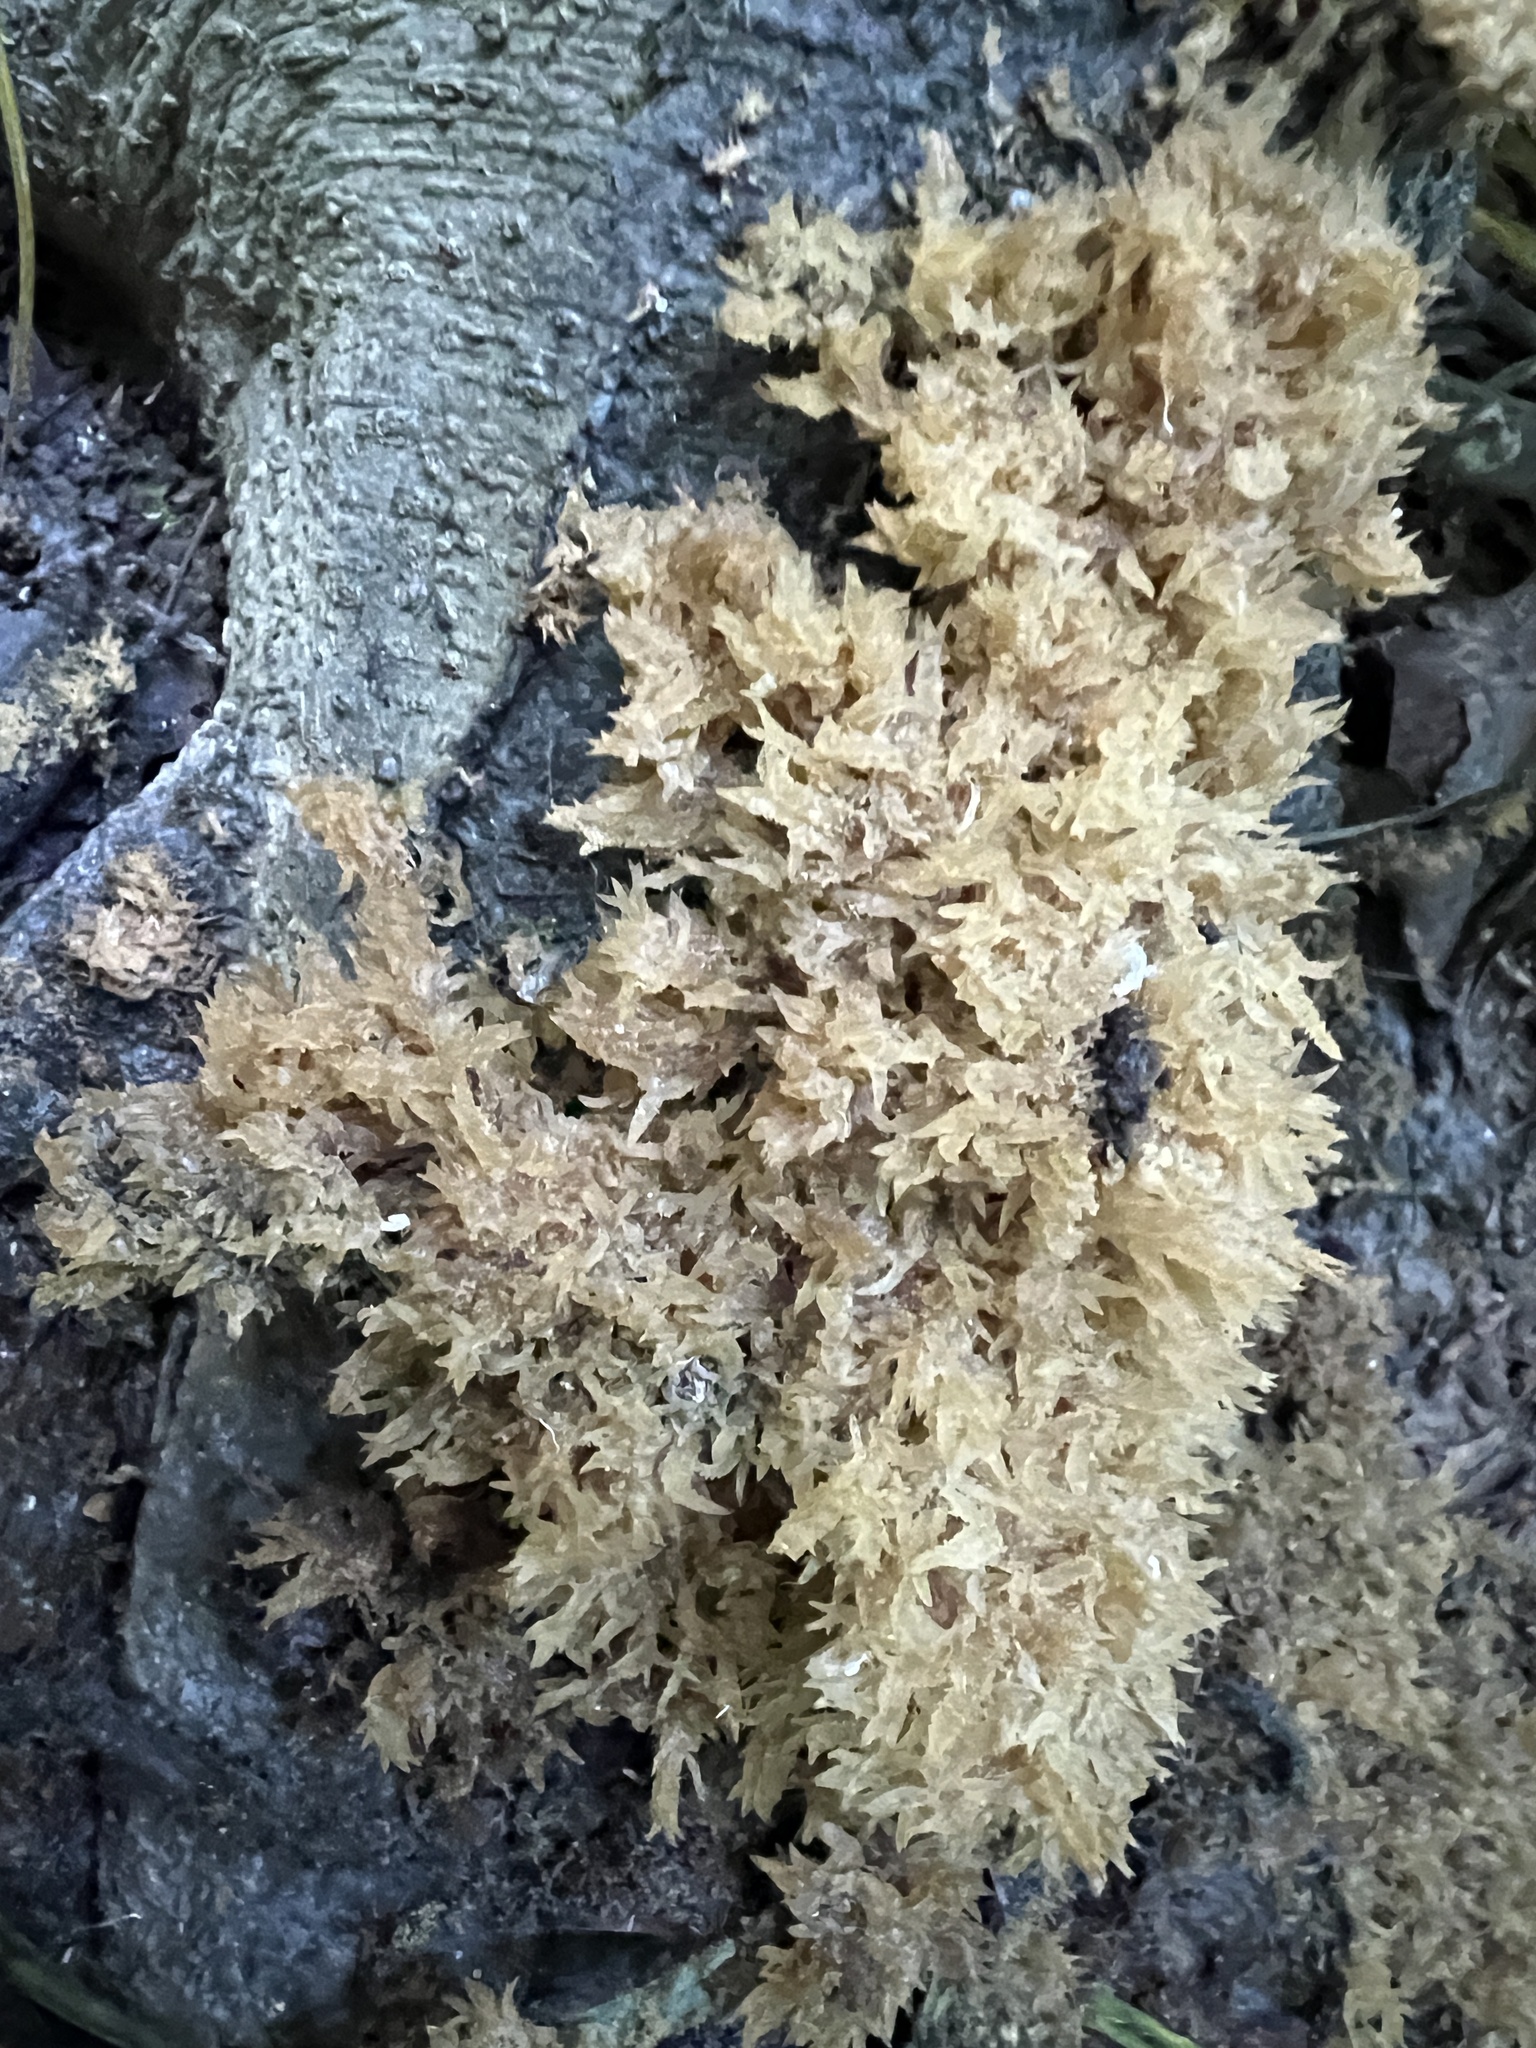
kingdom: Fungi
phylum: Ascomycota
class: Dothideomycetes
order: Capnodiales
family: Capnodiaceae
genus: Scorias
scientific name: Scorias spongiosa
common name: Black sooty mold
